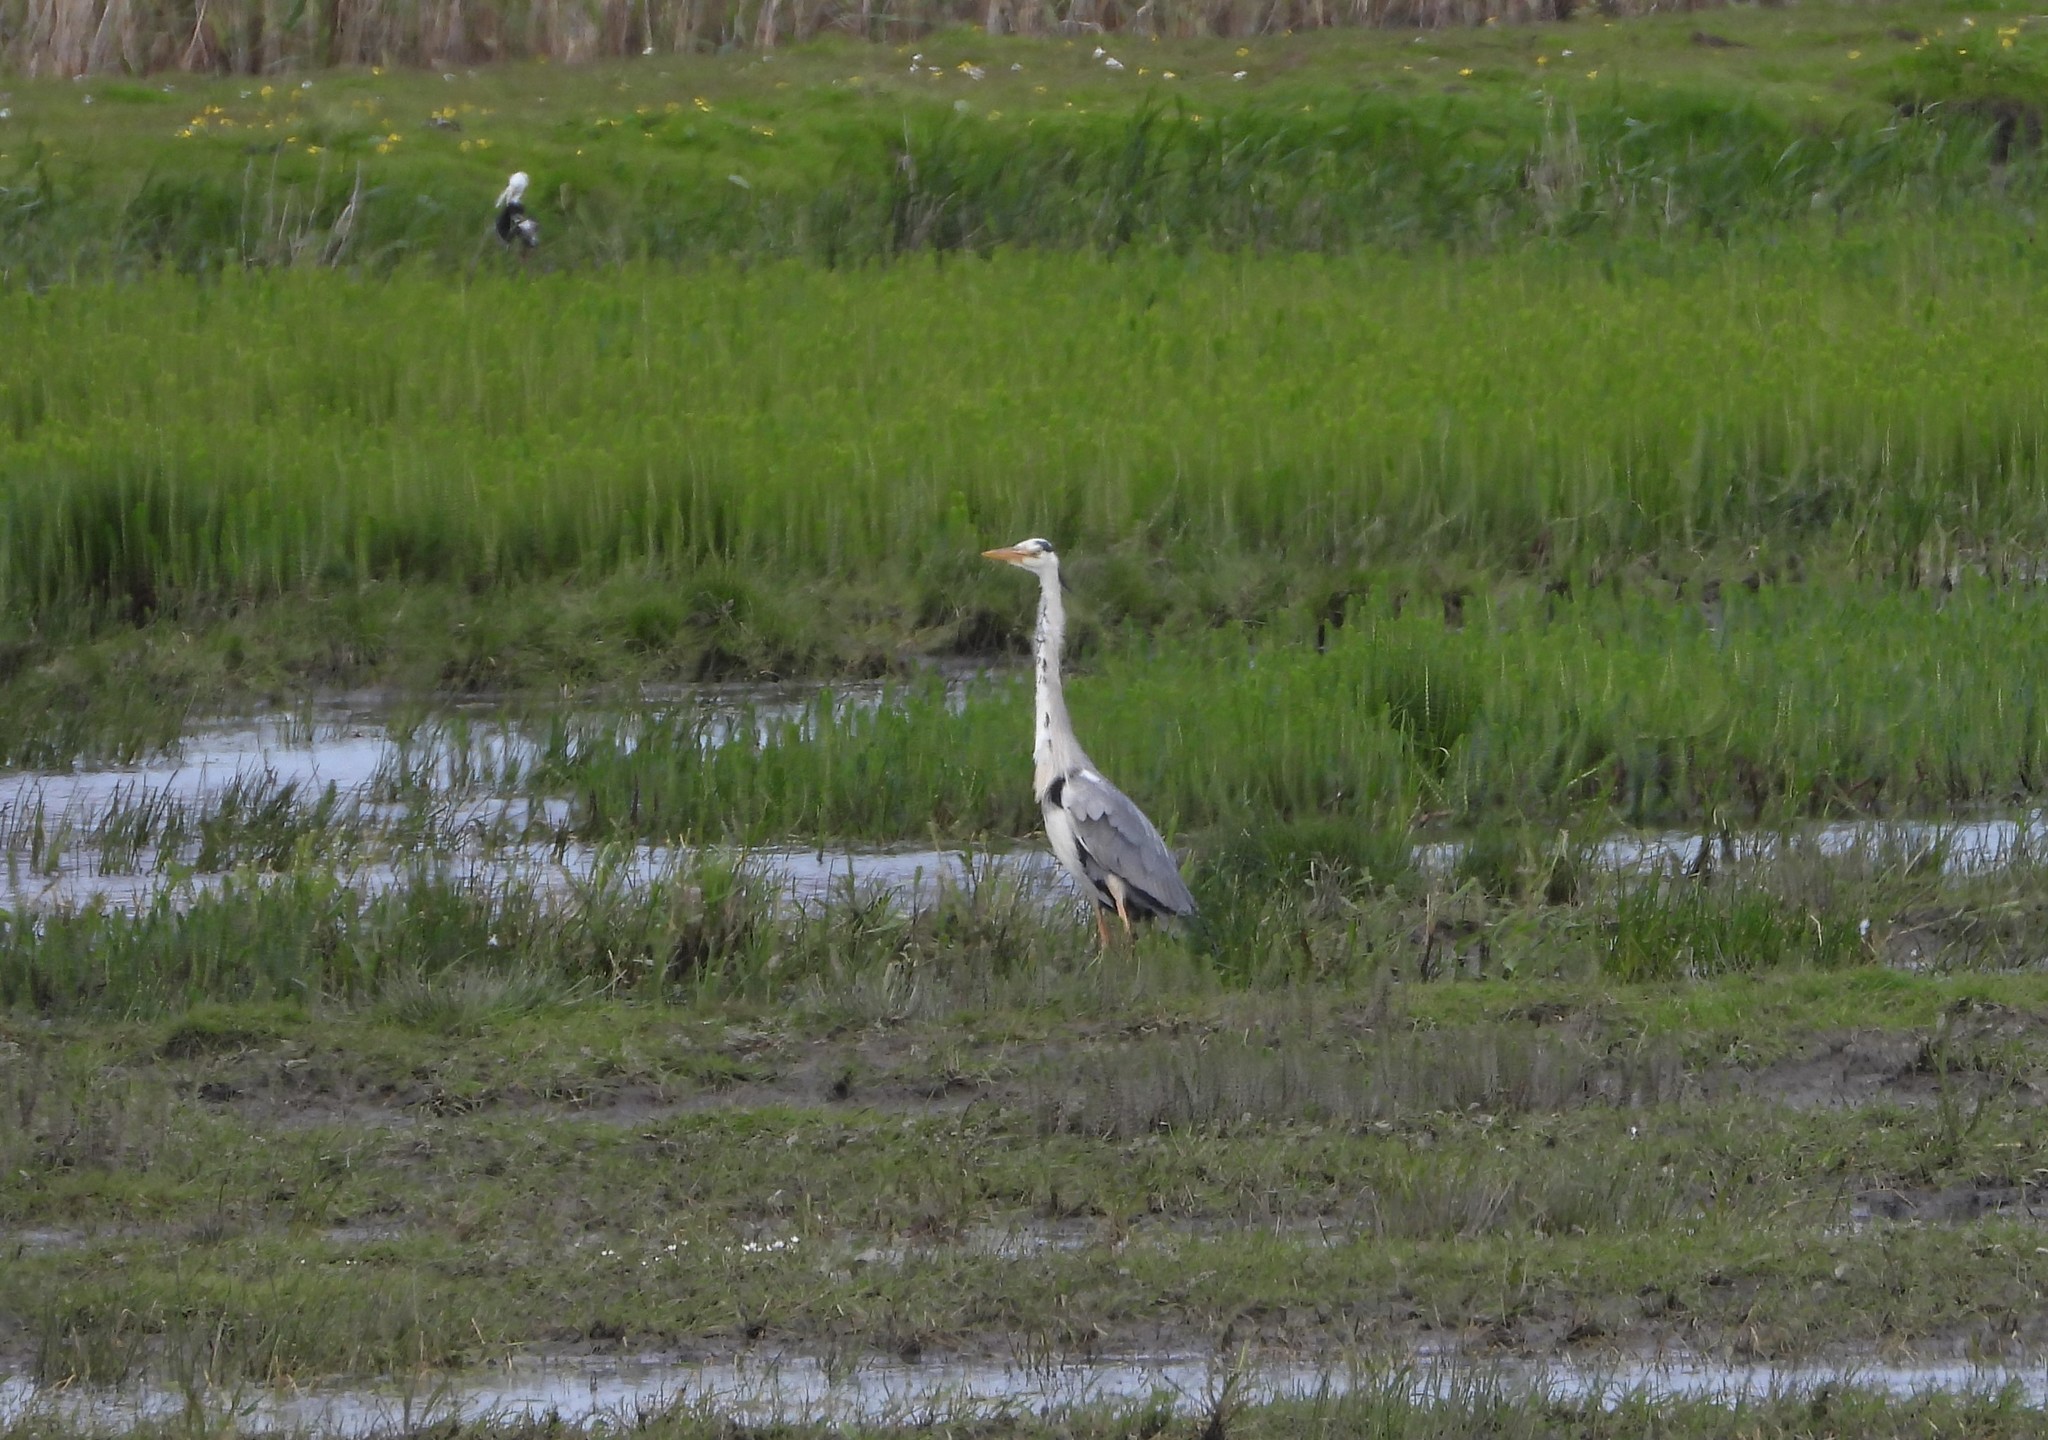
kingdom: Animalia
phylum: Chordata
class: Aves
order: Pelecaniformes
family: Ardeidae
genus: Ardea
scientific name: Ardea cinerea
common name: Grey heron
